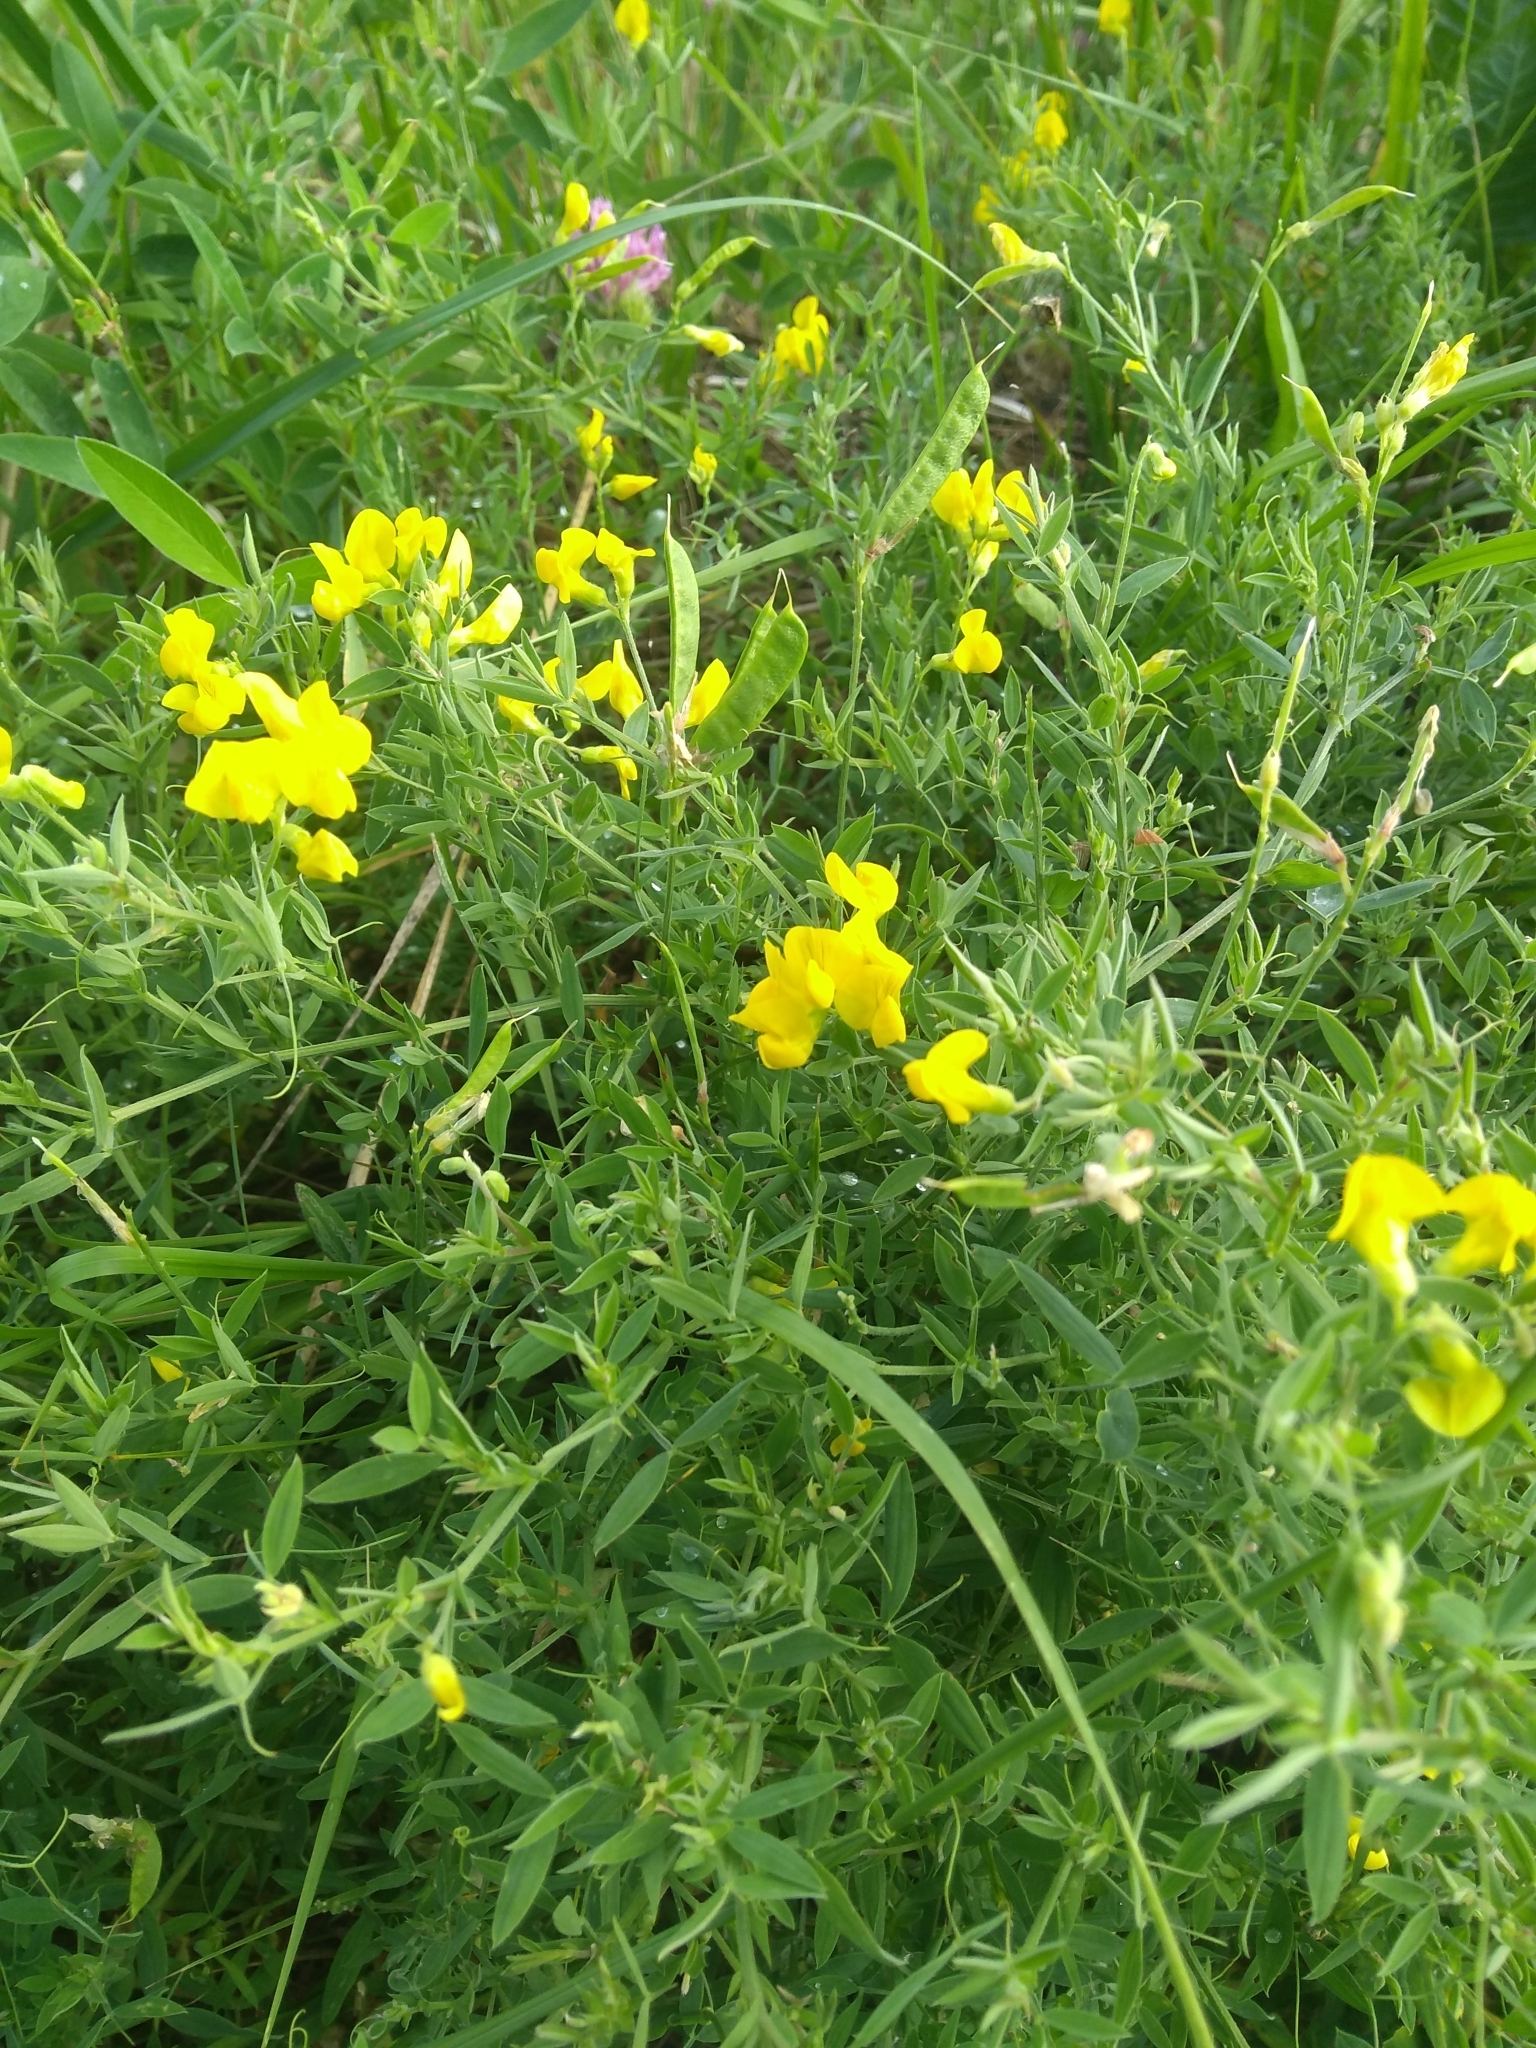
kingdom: Plantae
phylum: Tracheophyta
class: Magnoliopsida
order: Fabales
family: Fabaceae
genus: Lathyrus
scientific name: Lathyrus pratensis
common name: Meadow vetchling
